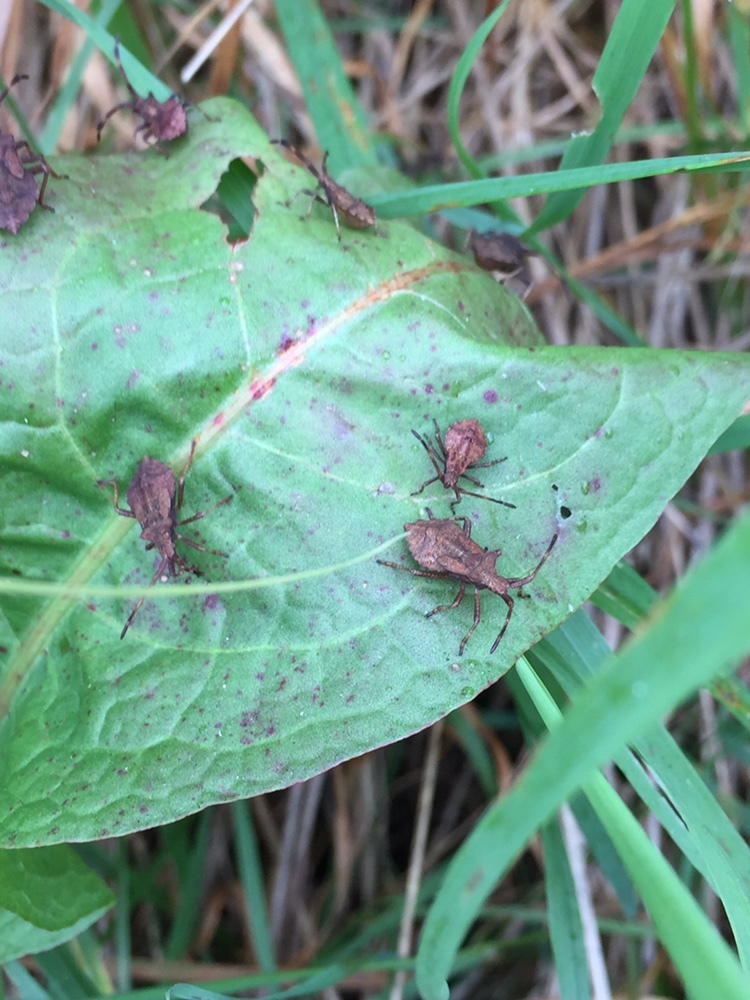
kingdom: Animalia
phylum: Arthropoda
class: Insecta
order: Hemiptera
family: Coreidae
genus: Coreus
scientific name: Coreus marginatus
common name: Dock bug
